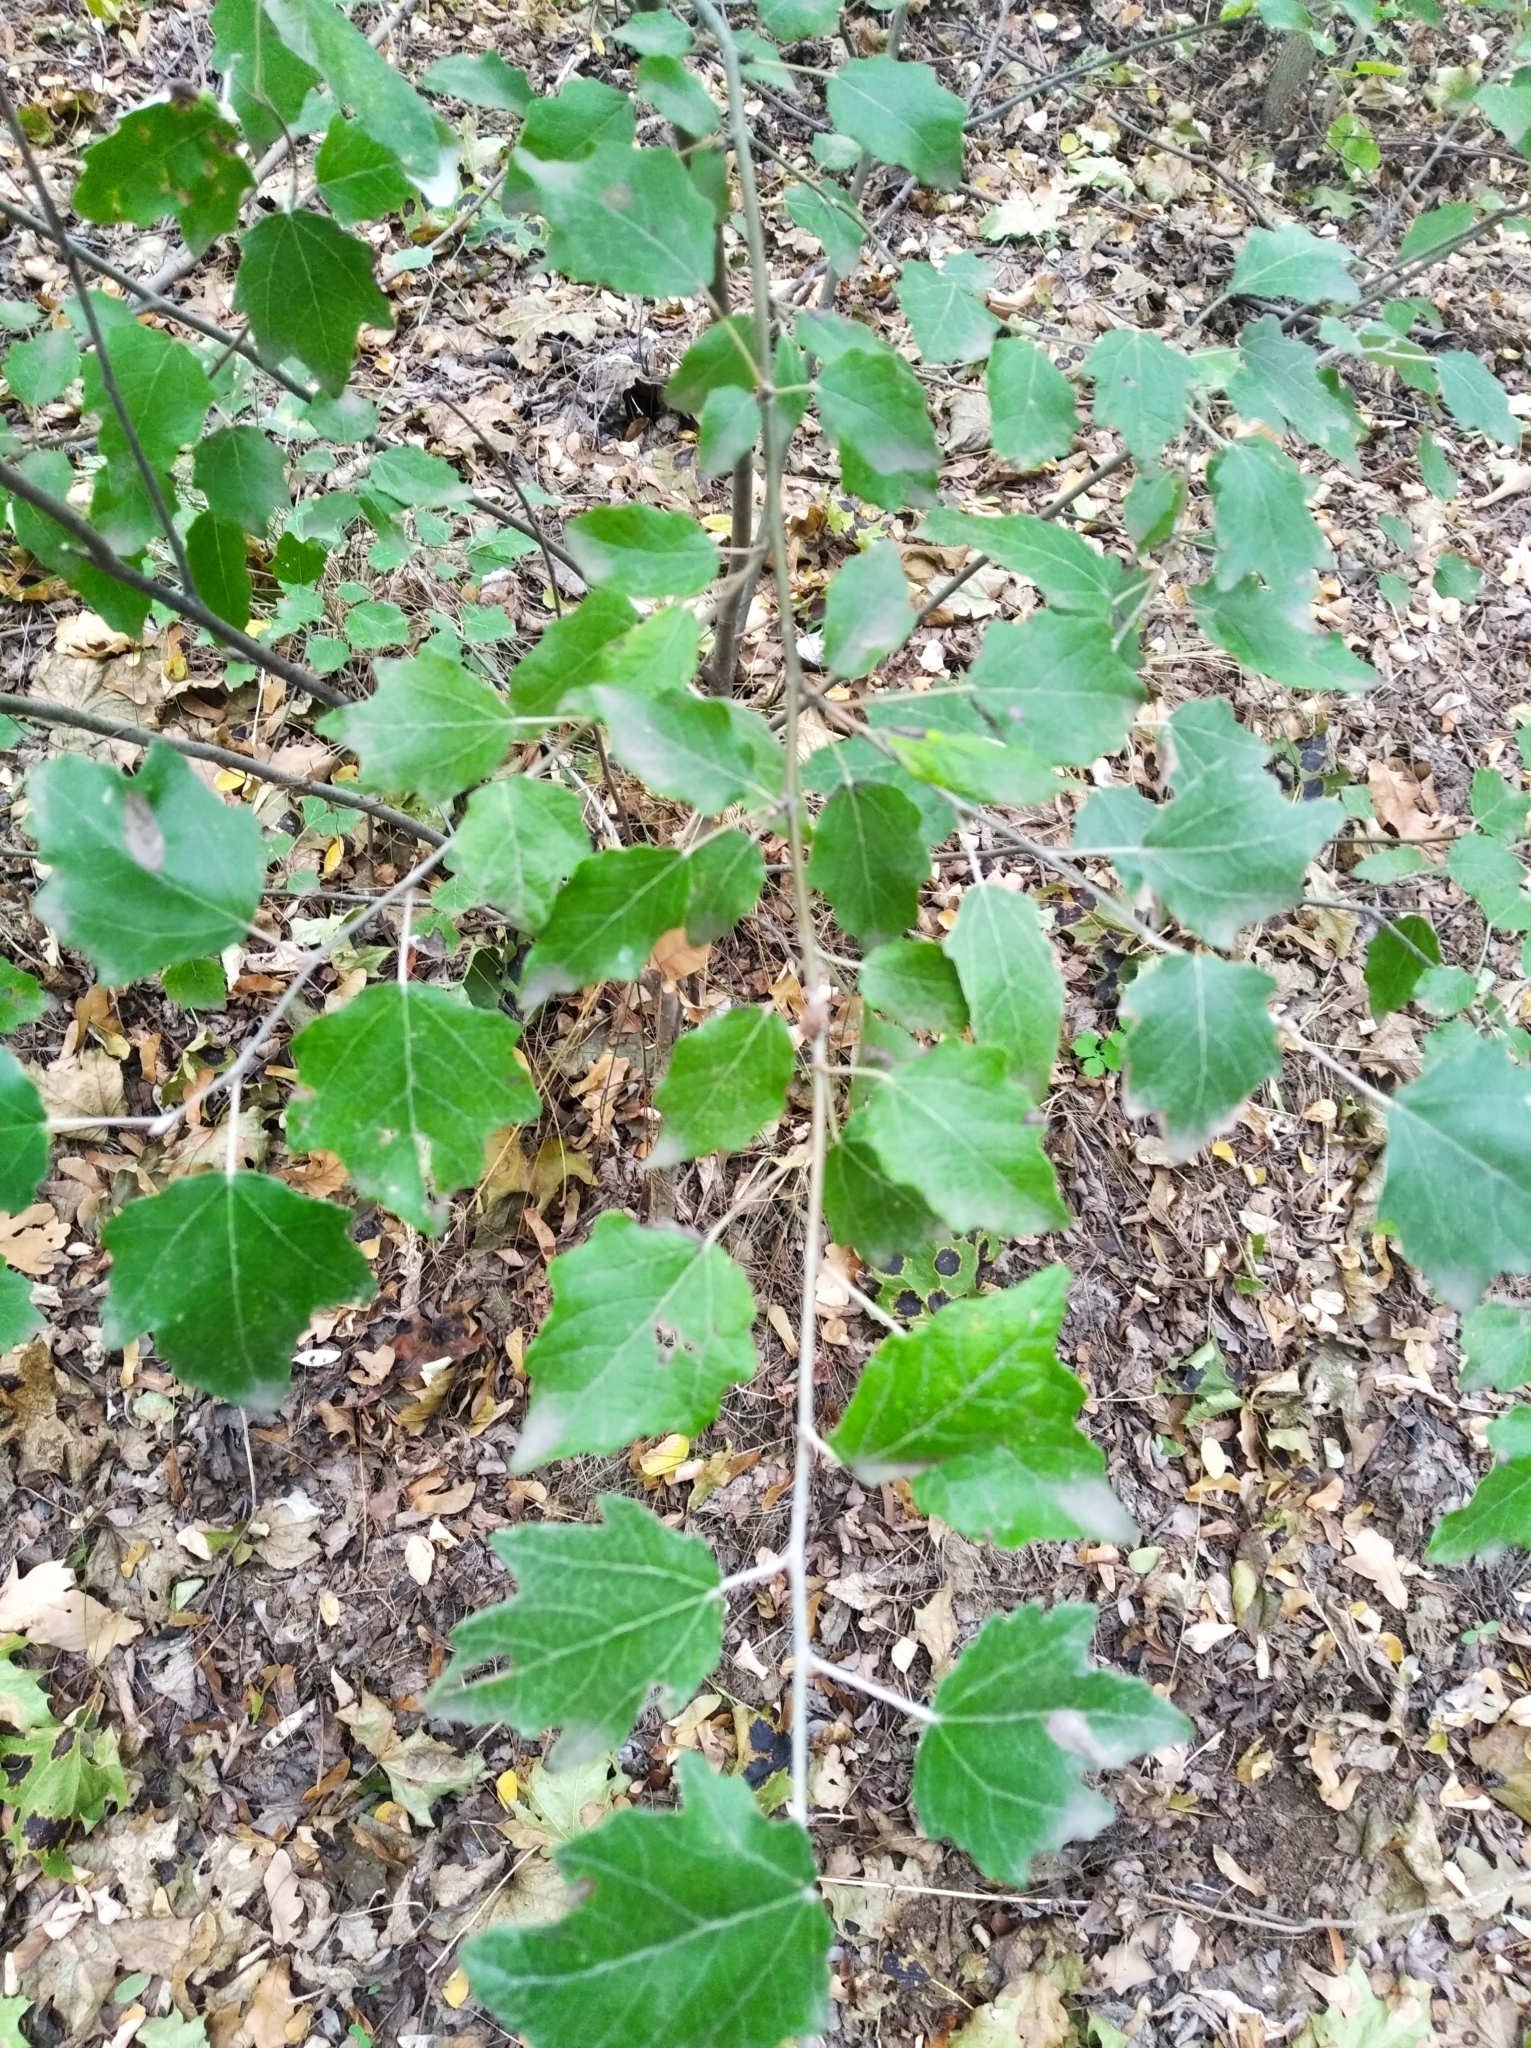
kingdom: Plantae
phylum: Tracheophyta
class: Magnoliopsida
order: Malpighiales
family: Salicaceae
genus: Populus
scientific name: Populus alba
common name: White poplar
